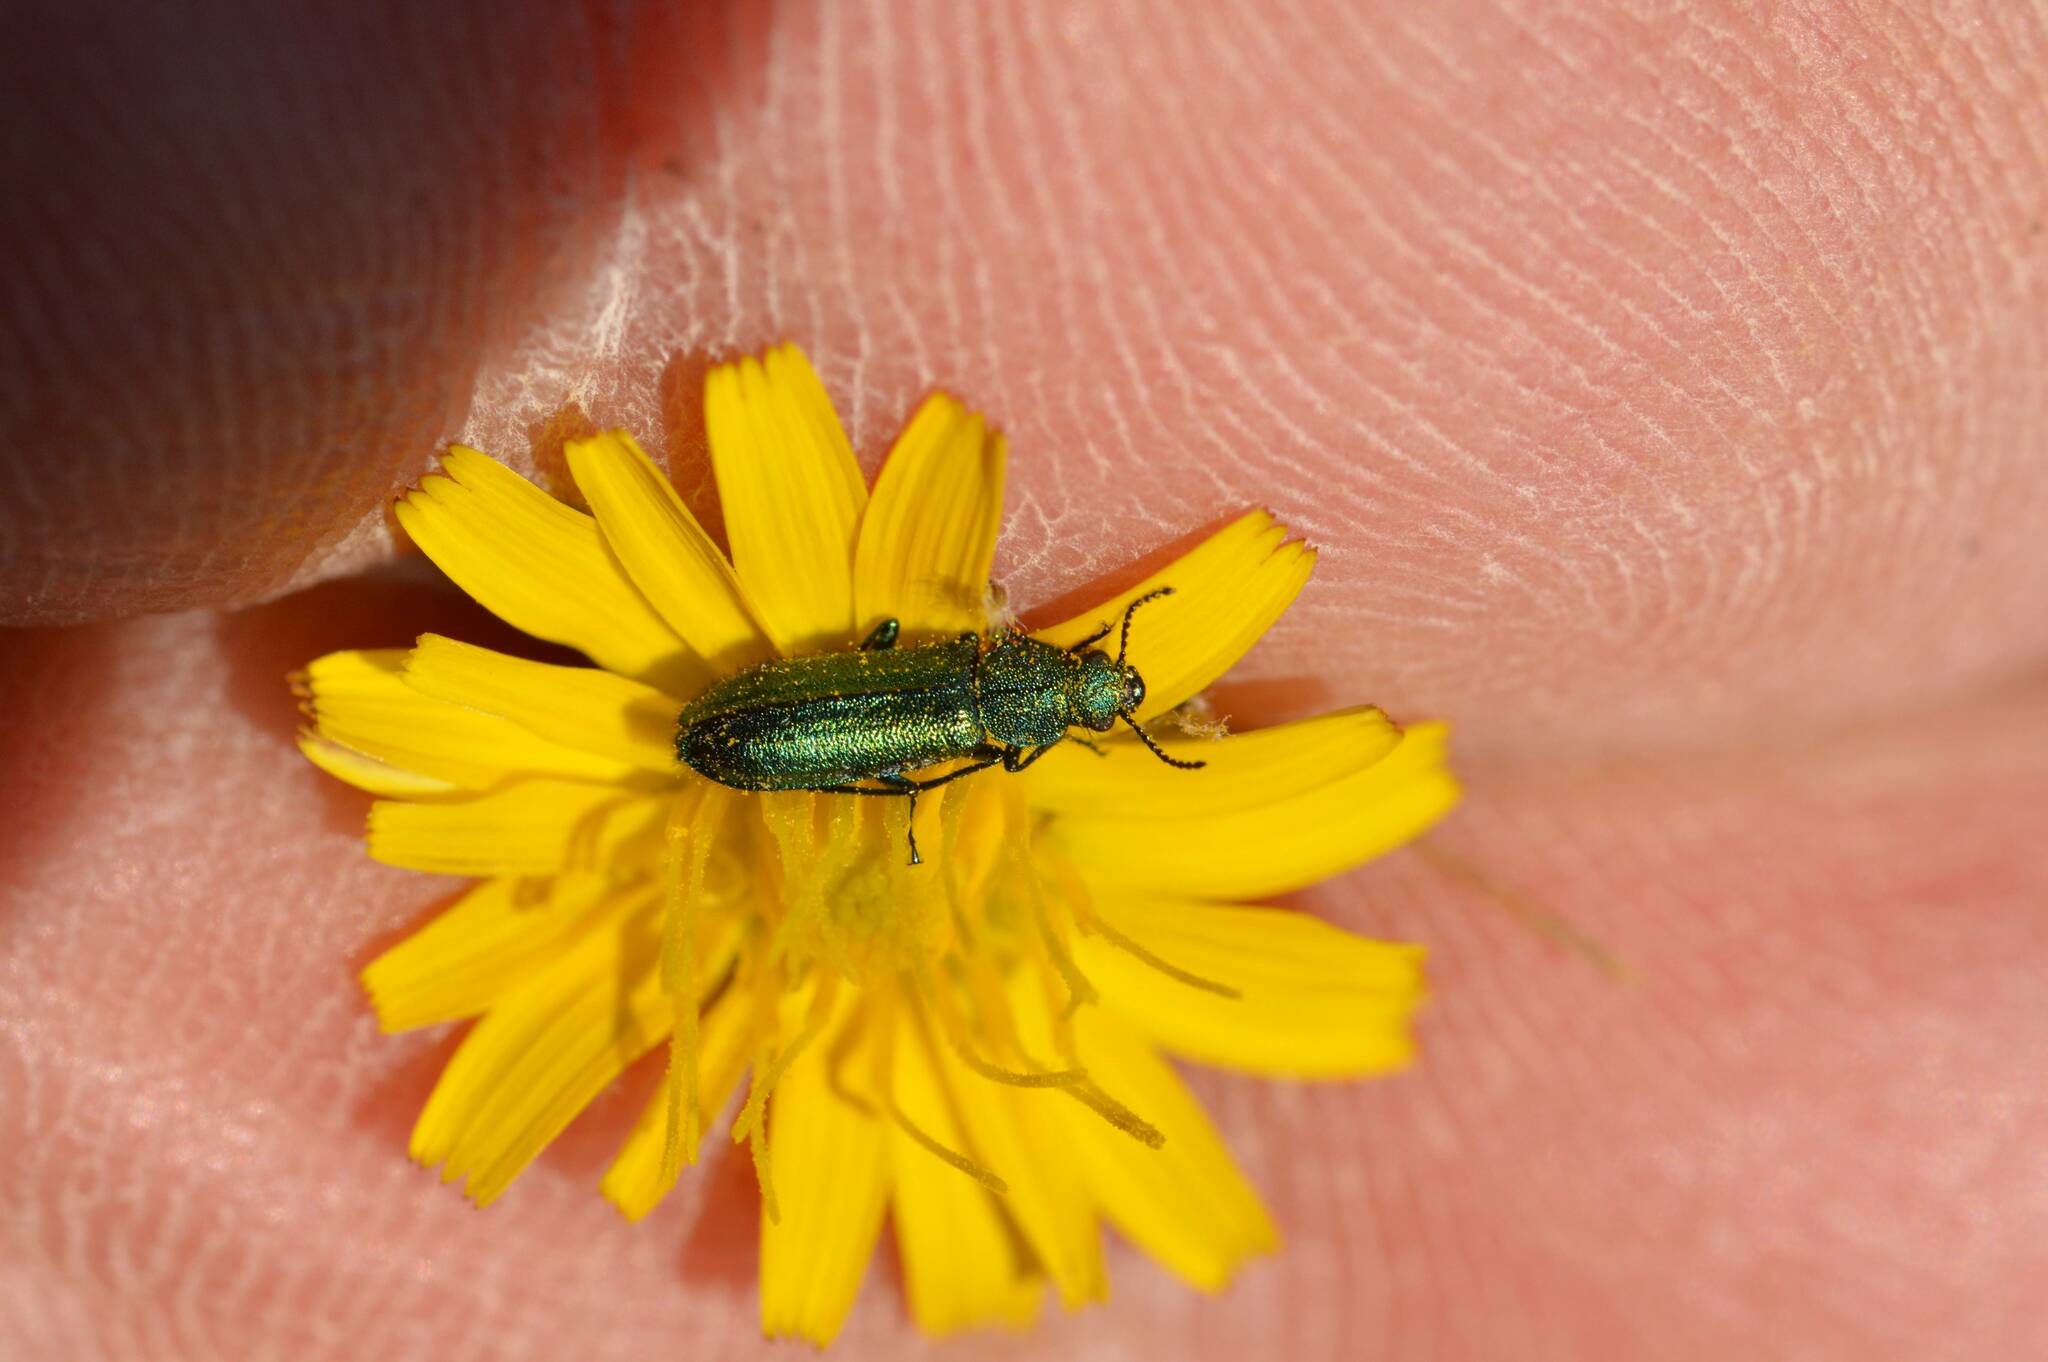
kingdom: Animalia
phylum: Arthropoda
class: Insecta
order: Coleoptera
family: Dasytidae
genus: Psilothrix
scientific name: Psilothrix viridicoerulea
